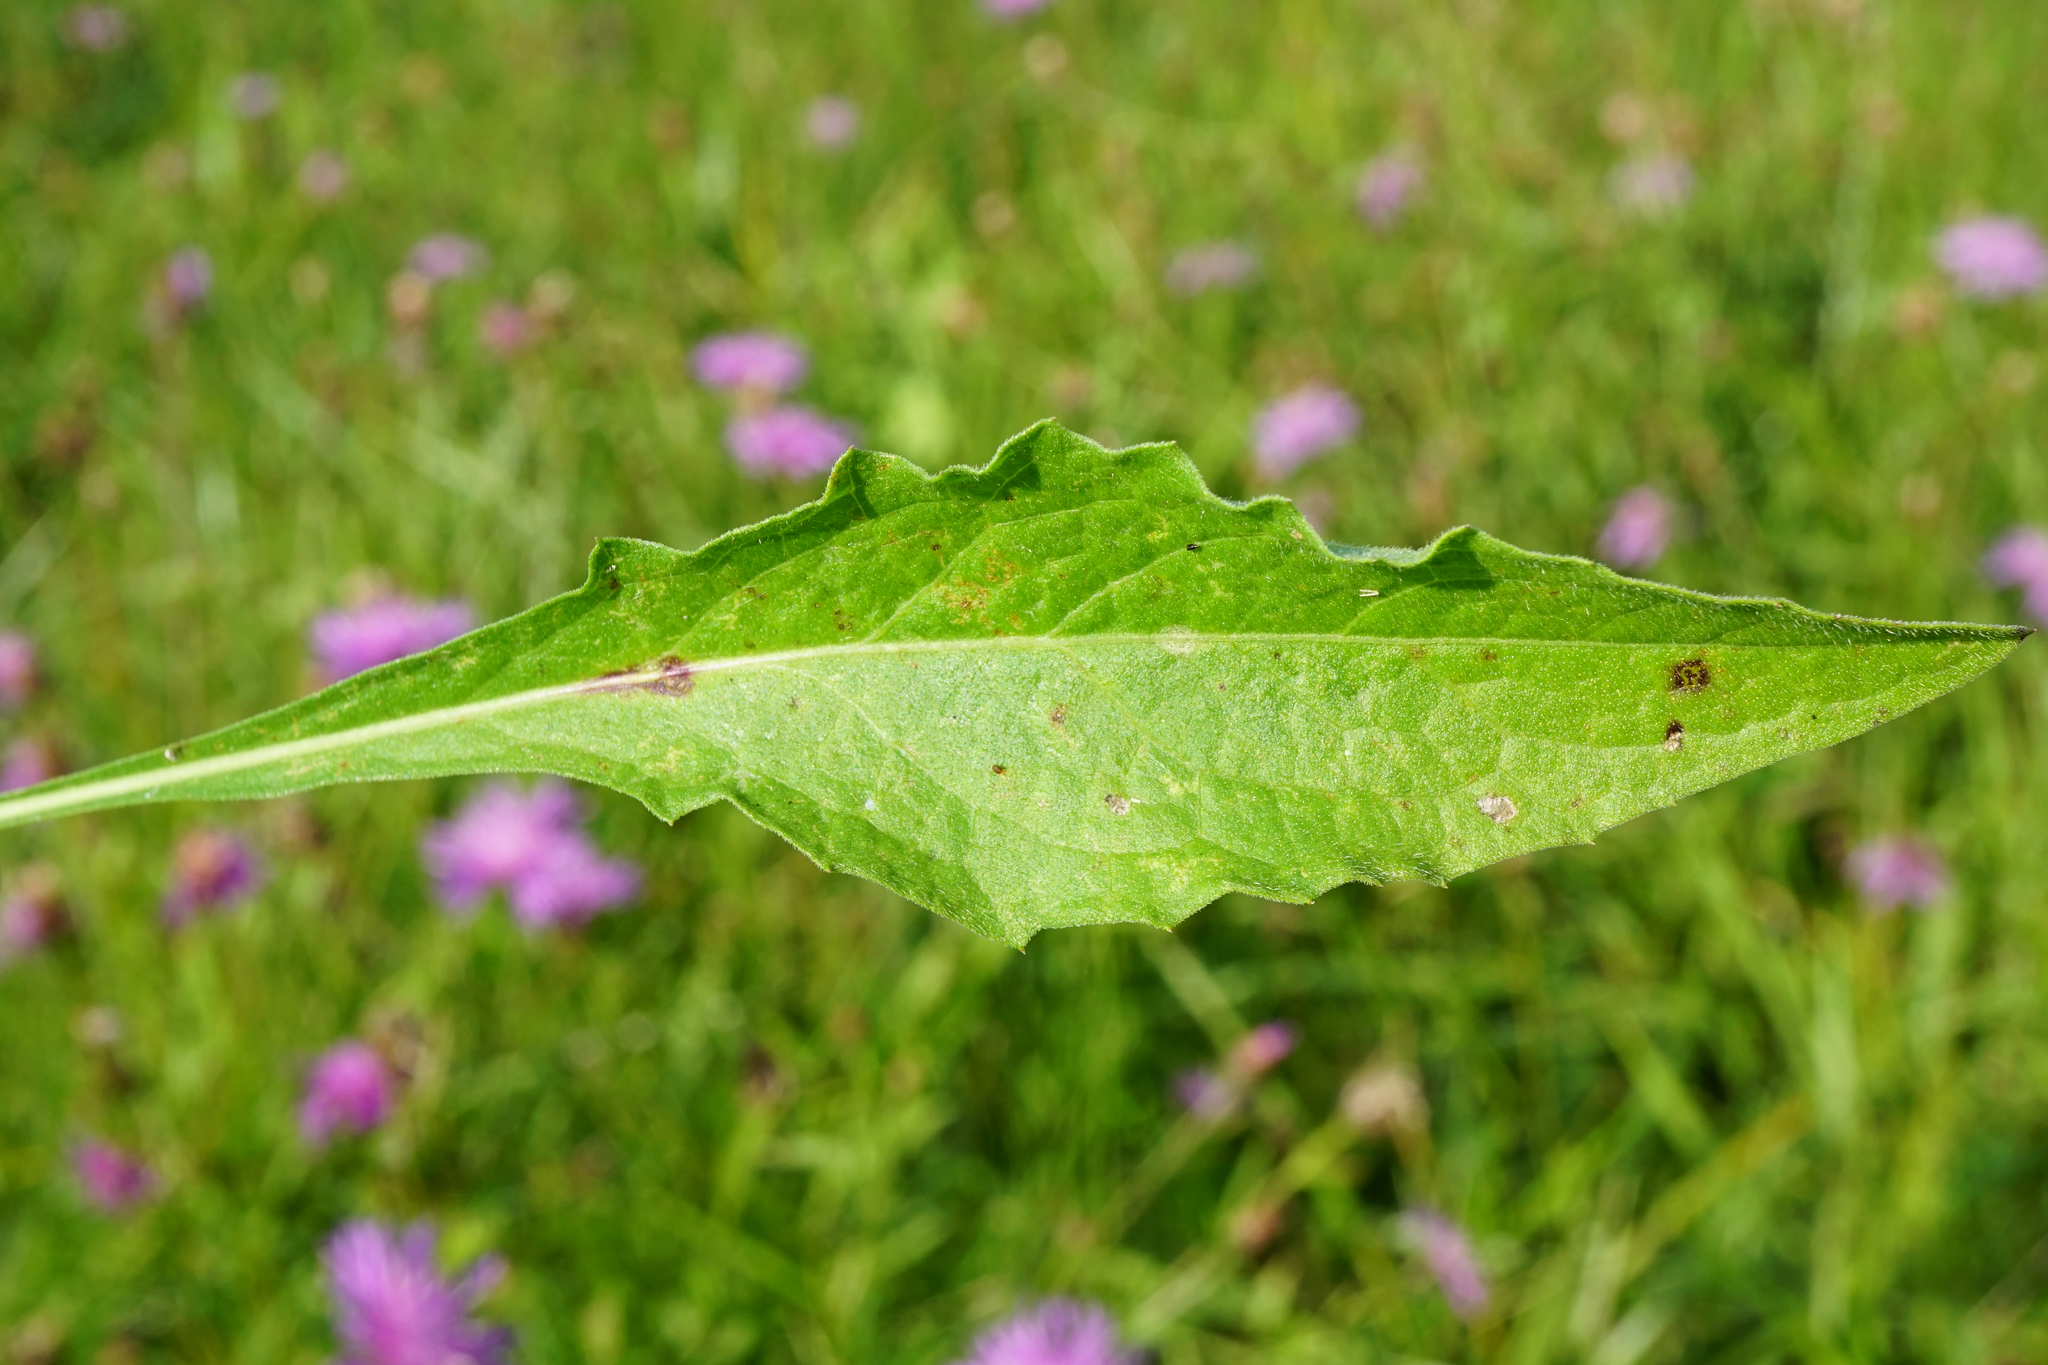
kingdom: Plantae
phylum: Tracheophyta
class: Magnoliopsida
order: Asterales
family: Asteraceae
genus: Centaurea
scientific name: Centaurea nigrescens
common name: Tyrol knapweed
